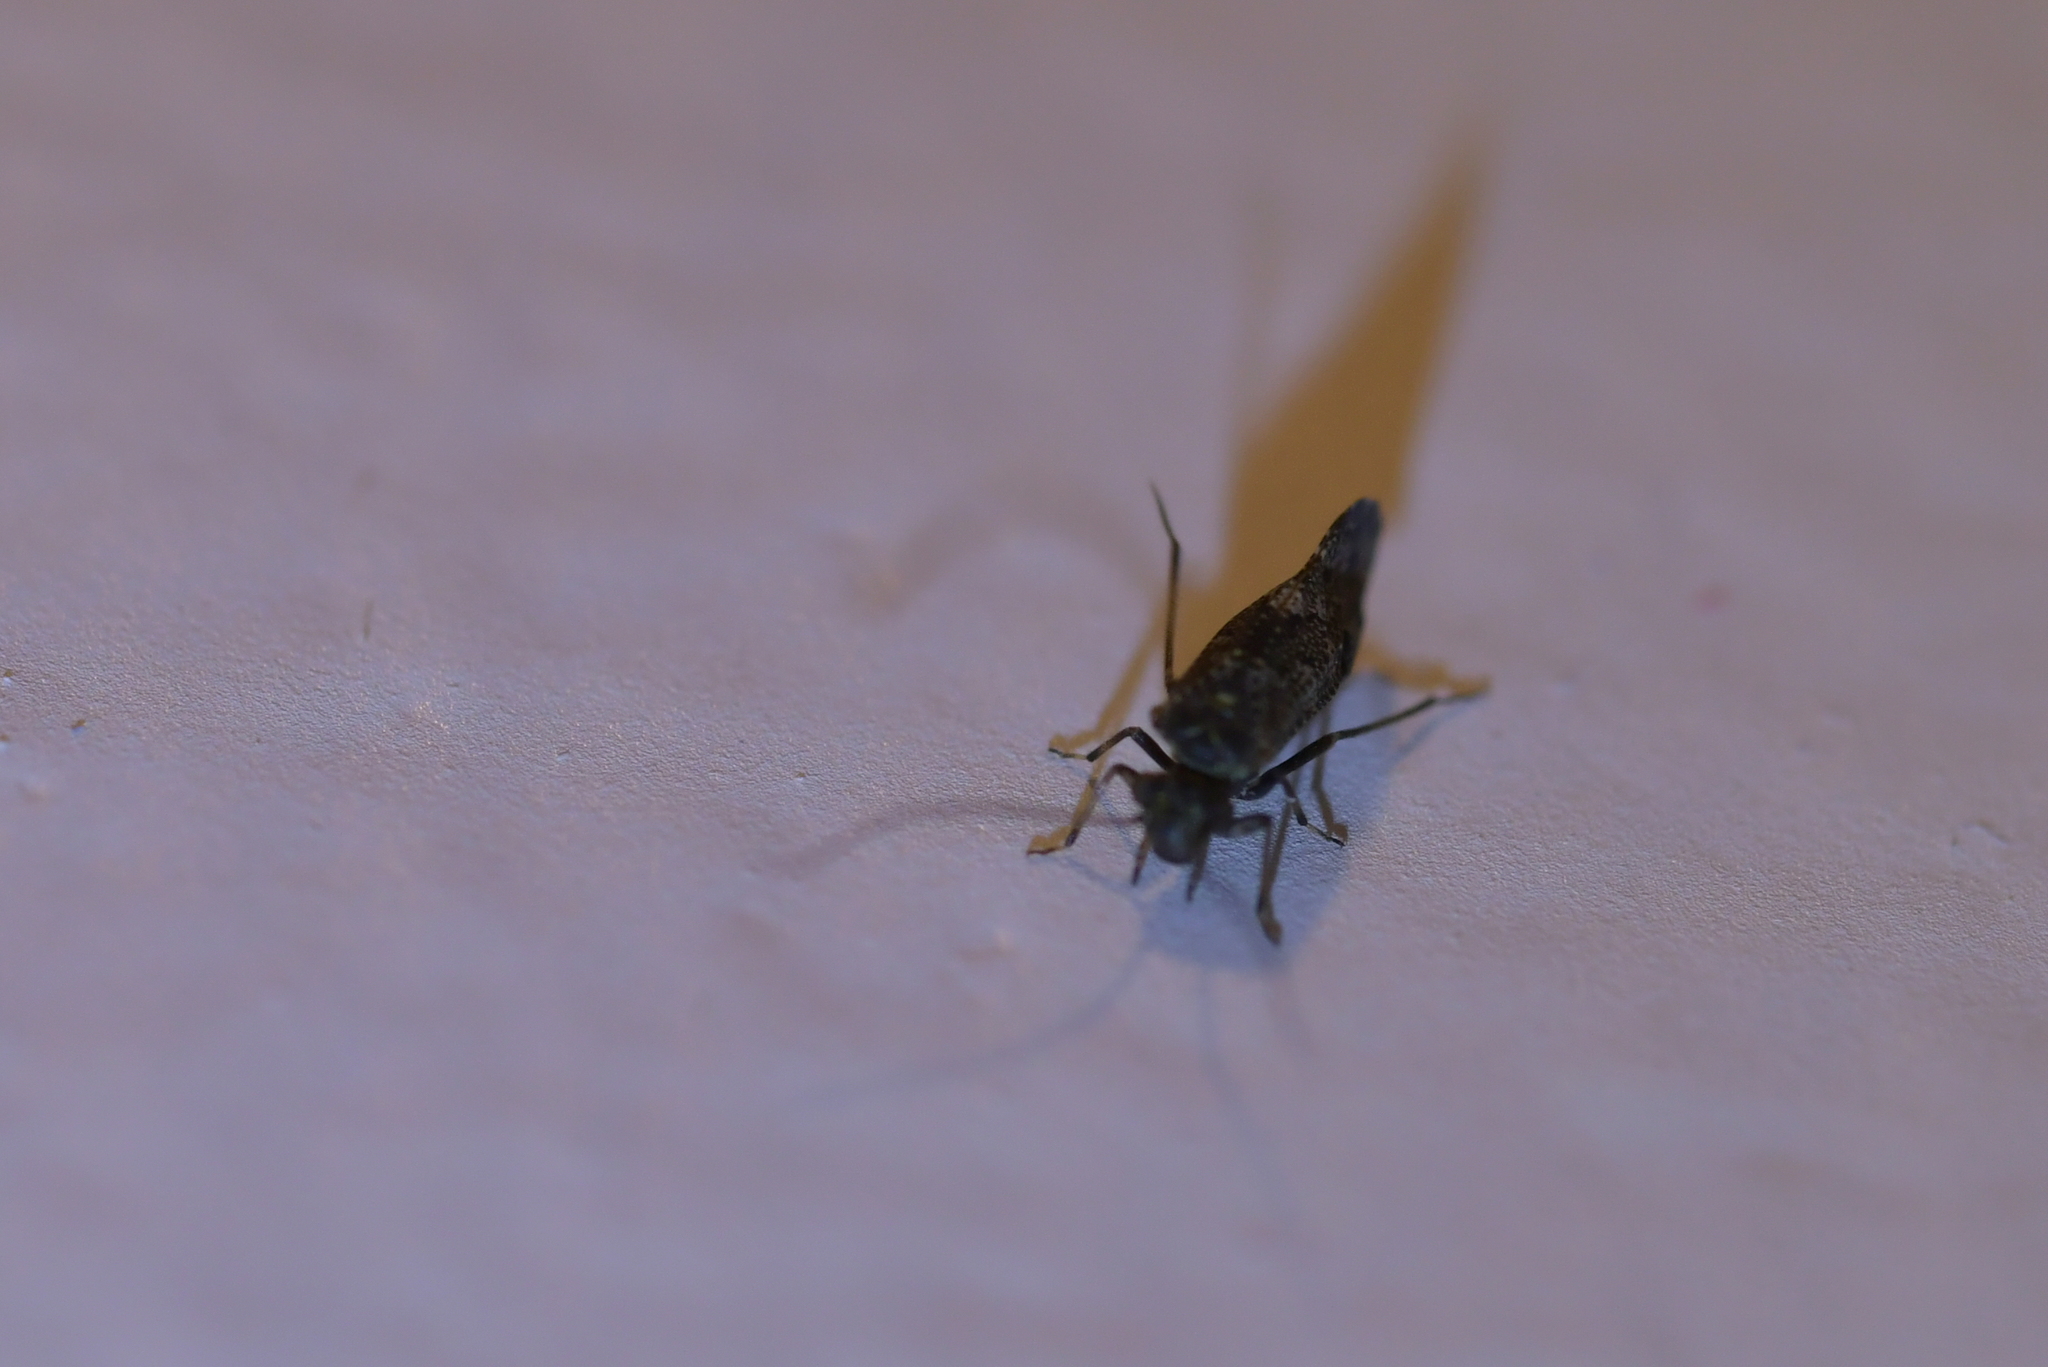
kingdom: Animalia
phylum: Arthropoda
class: Insecta
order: Psocodea
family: Myopsocidae
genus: Nimbopsocus
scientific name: Nimbopsocus australis
